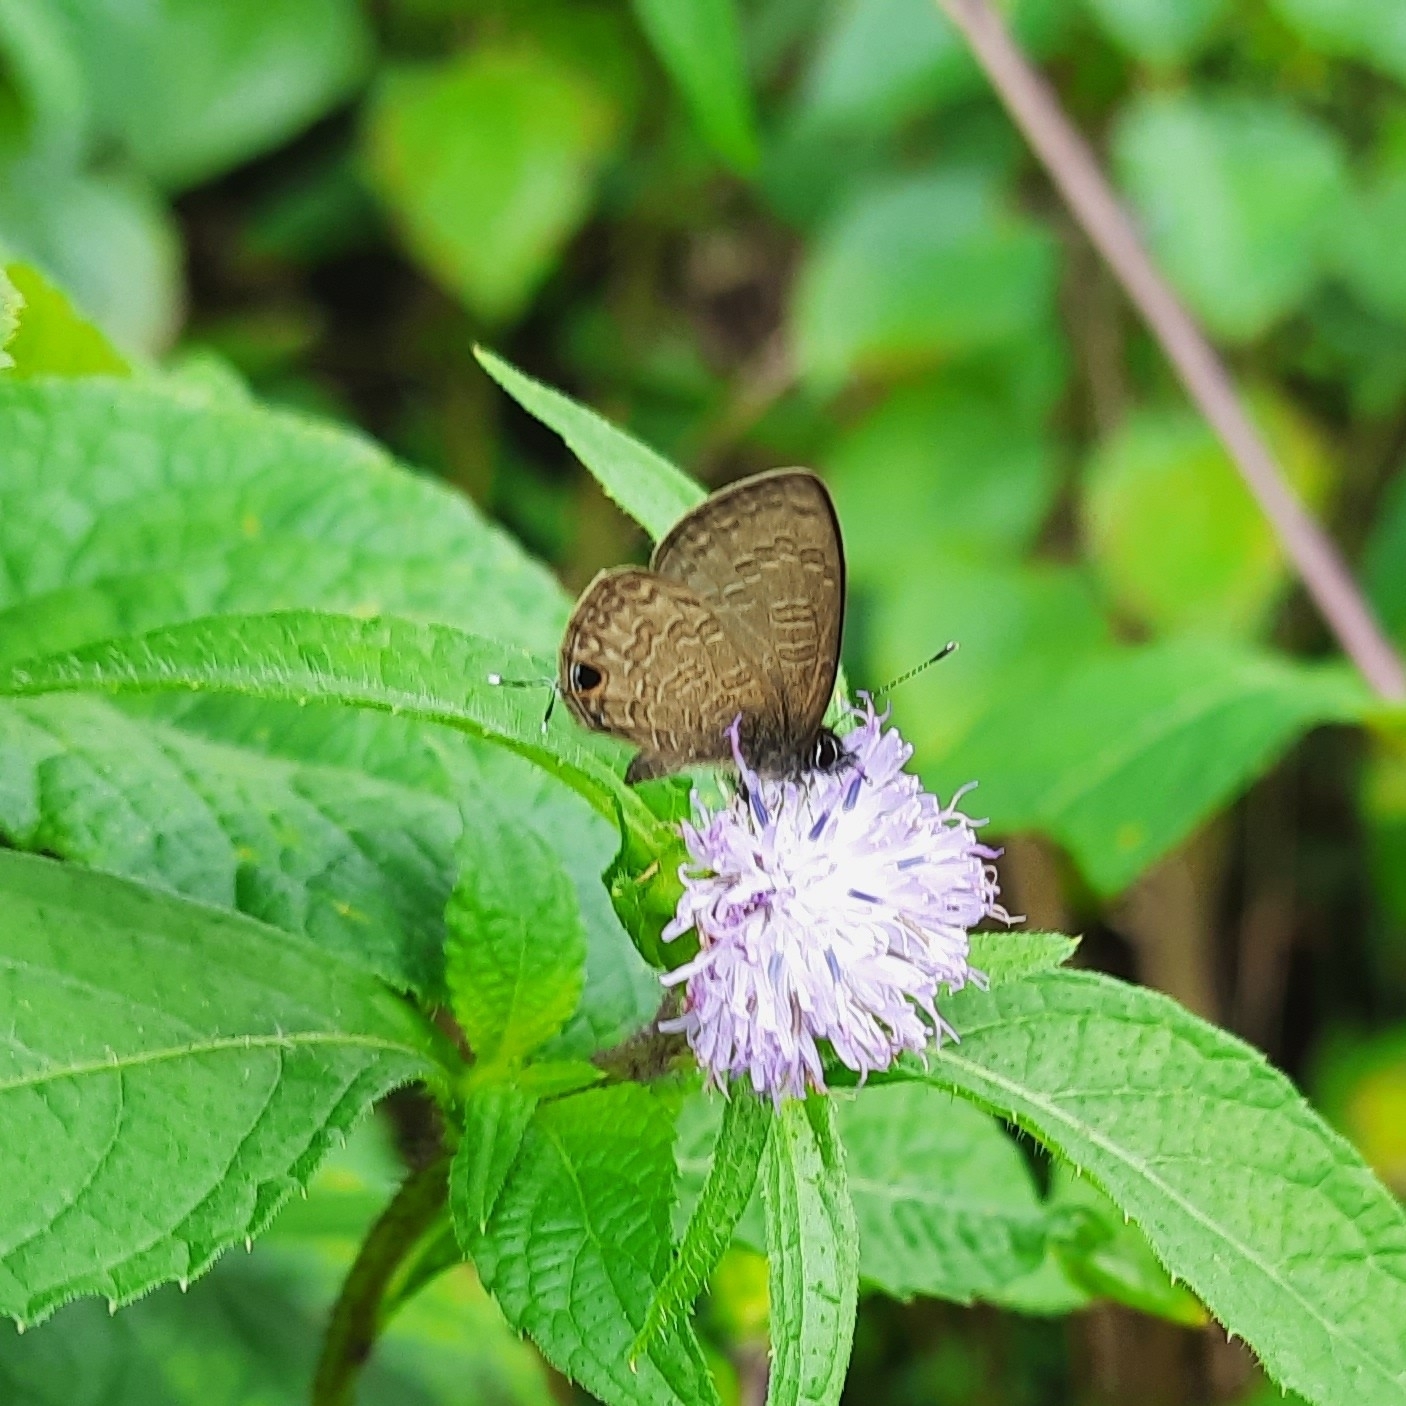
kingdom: Animalia
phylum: Arthropoda
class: Insecta
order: Lepidoptera
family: Lycaenidae
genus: Prosotas
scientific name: Prosotas nora
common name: Common line blue
